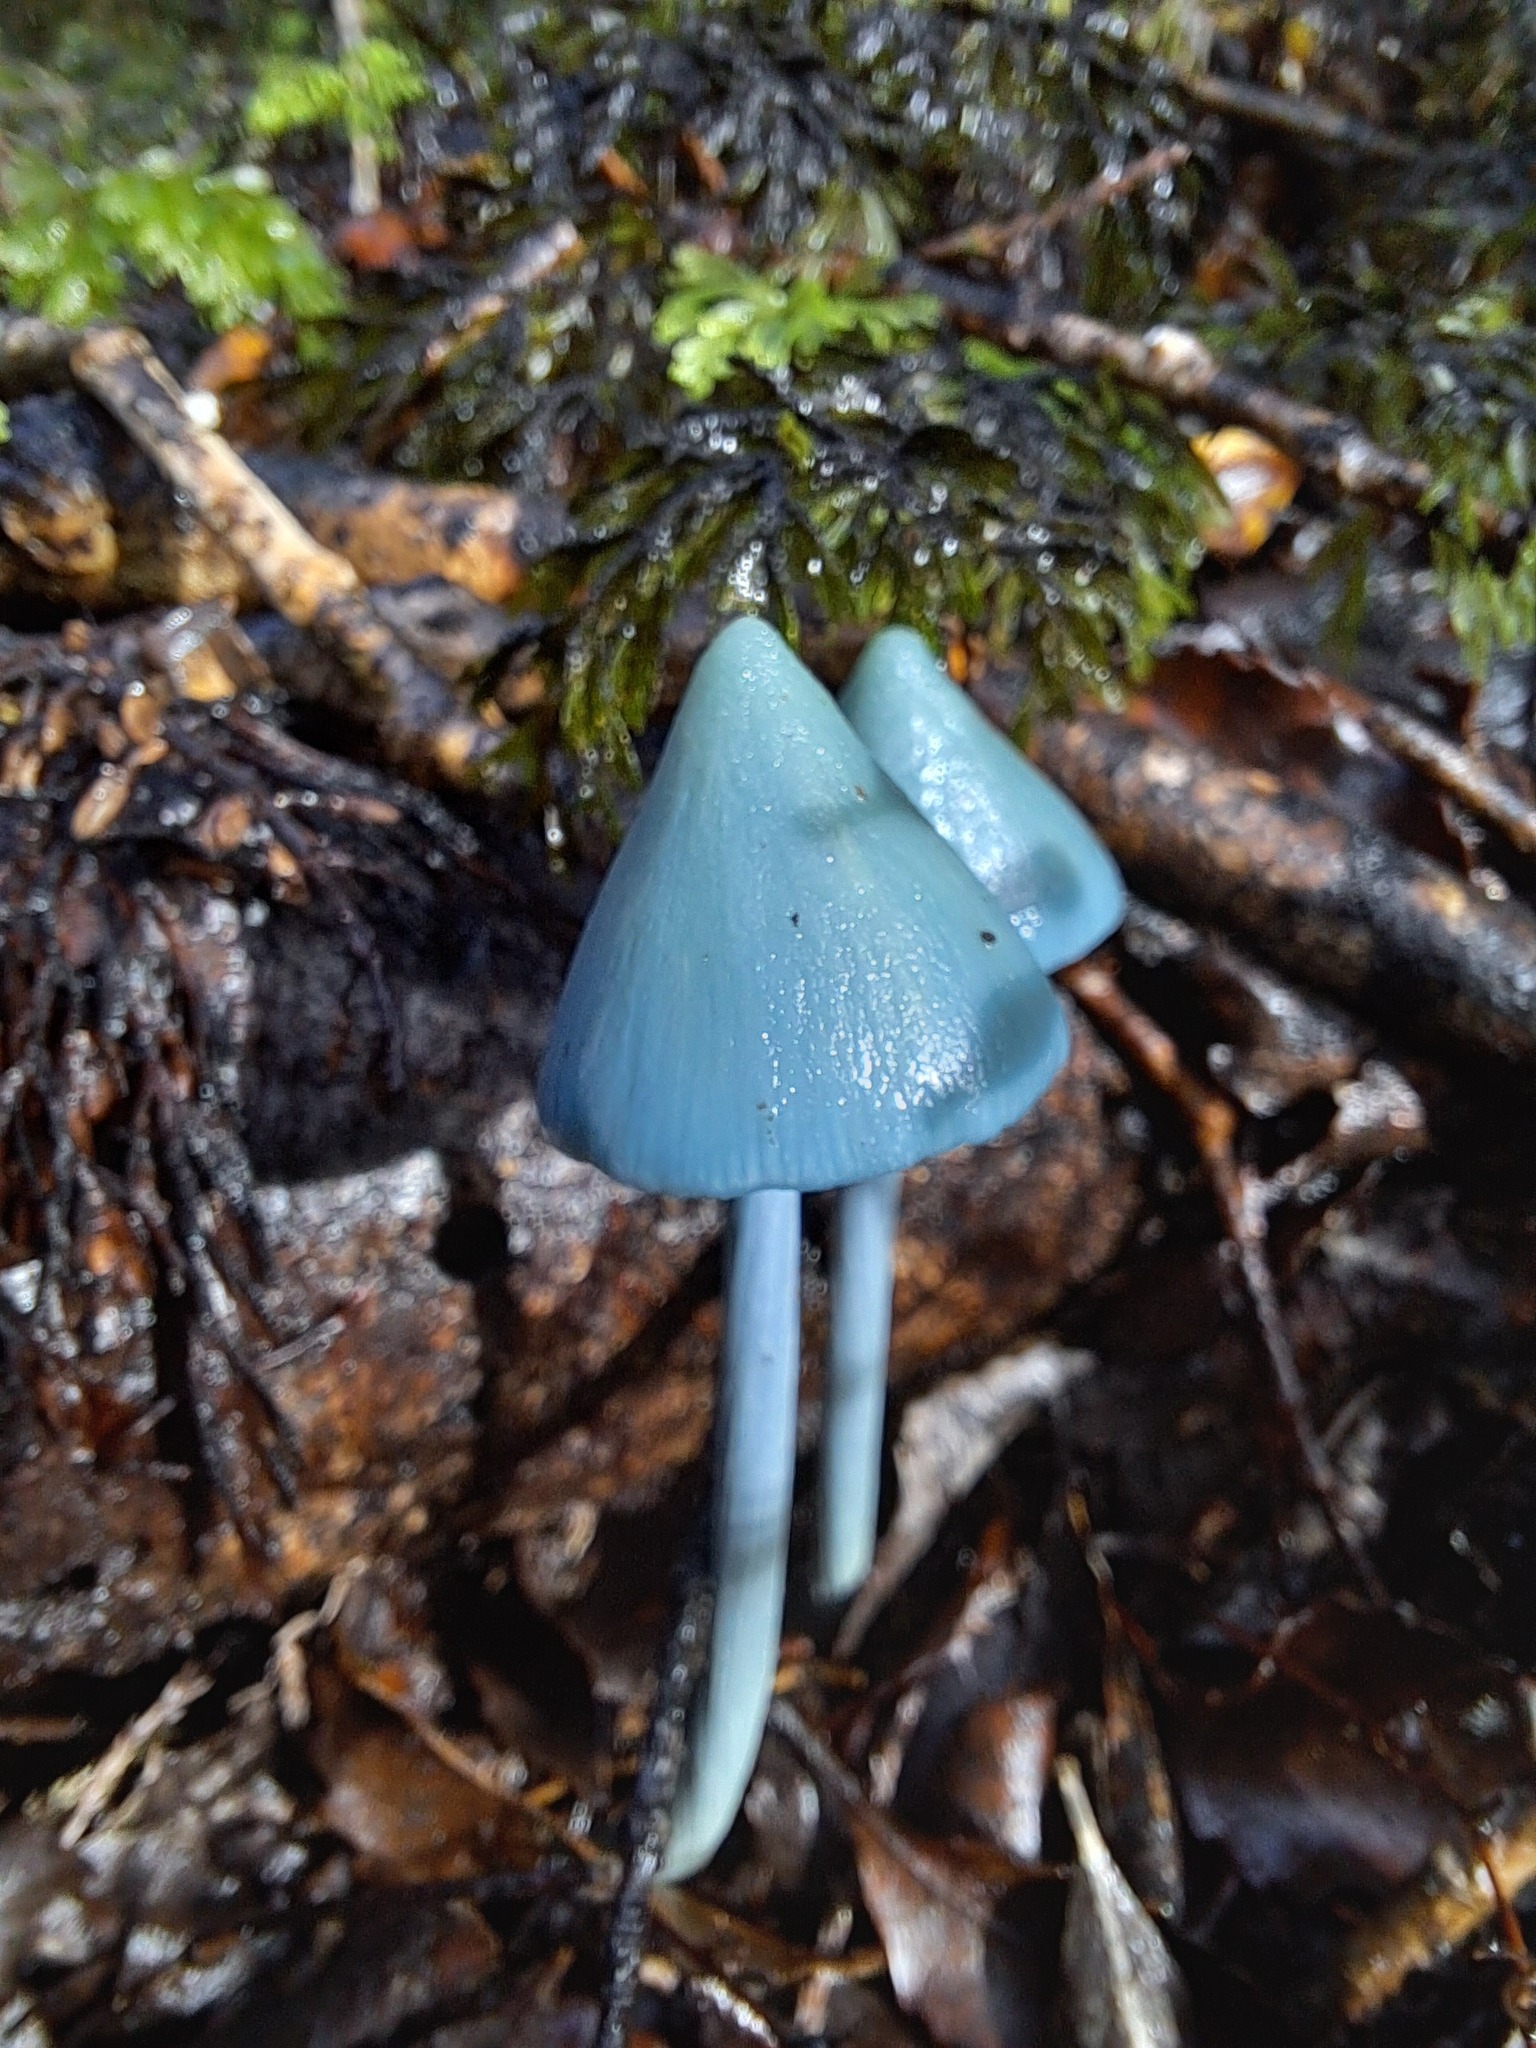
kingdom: Fungi
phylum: Basidiomycota
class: Agaricomycetes
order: Agaricales
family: Entolomataceae
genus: Entoloma
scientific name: Entoloma hochstetteri
